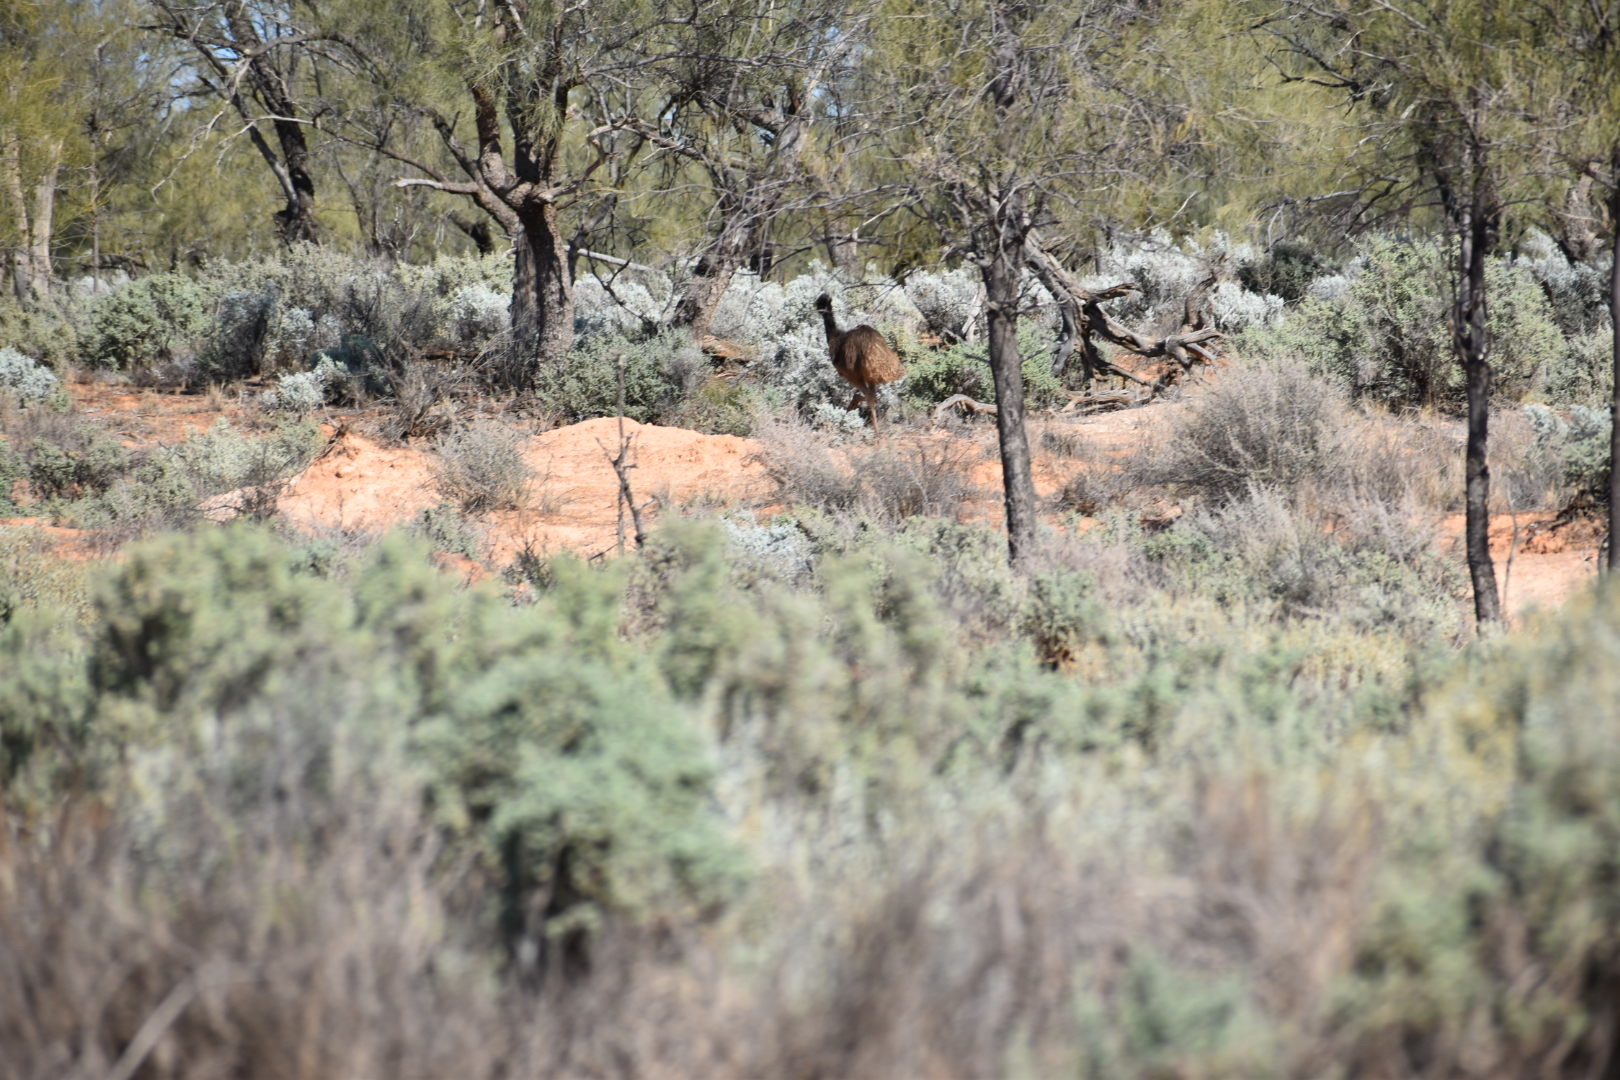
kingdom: Animalia
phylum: Chordata
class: Aves
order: Casuariiformes
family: Dromaiidae
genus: Dromaius
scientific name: Dromaius novaehollandiae
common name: Emu
